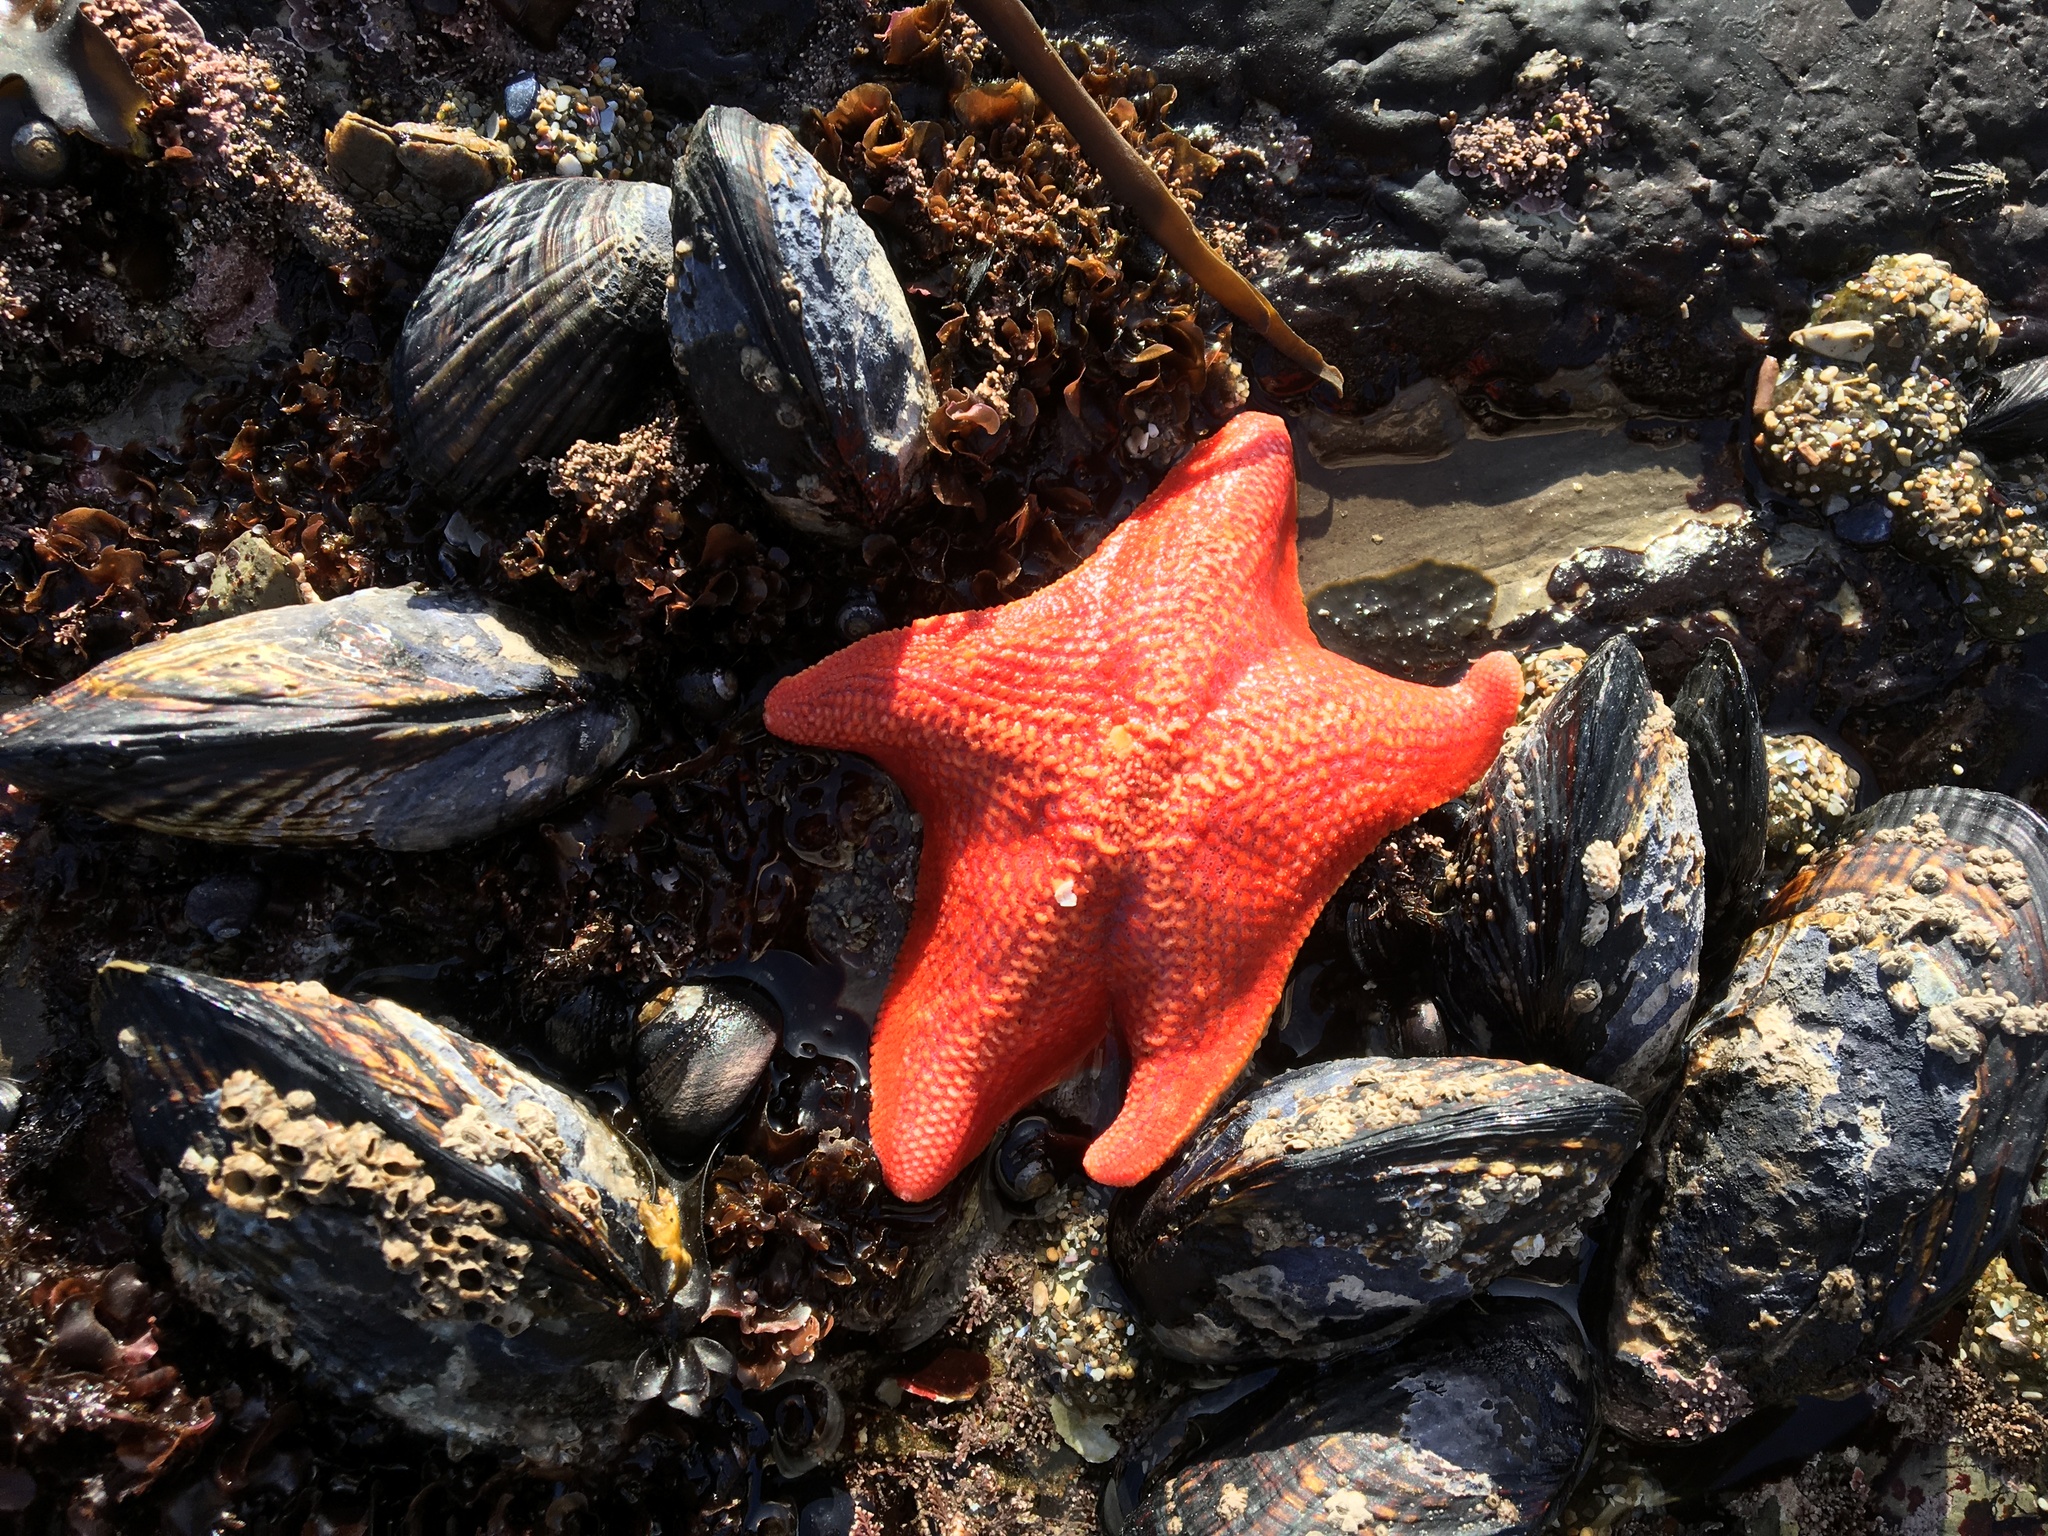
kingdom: Animalia
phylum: Echinodermata
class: Asteroidea
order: Valvatida
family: Asterinidae
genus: Patiria
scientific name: Patiria miniata
